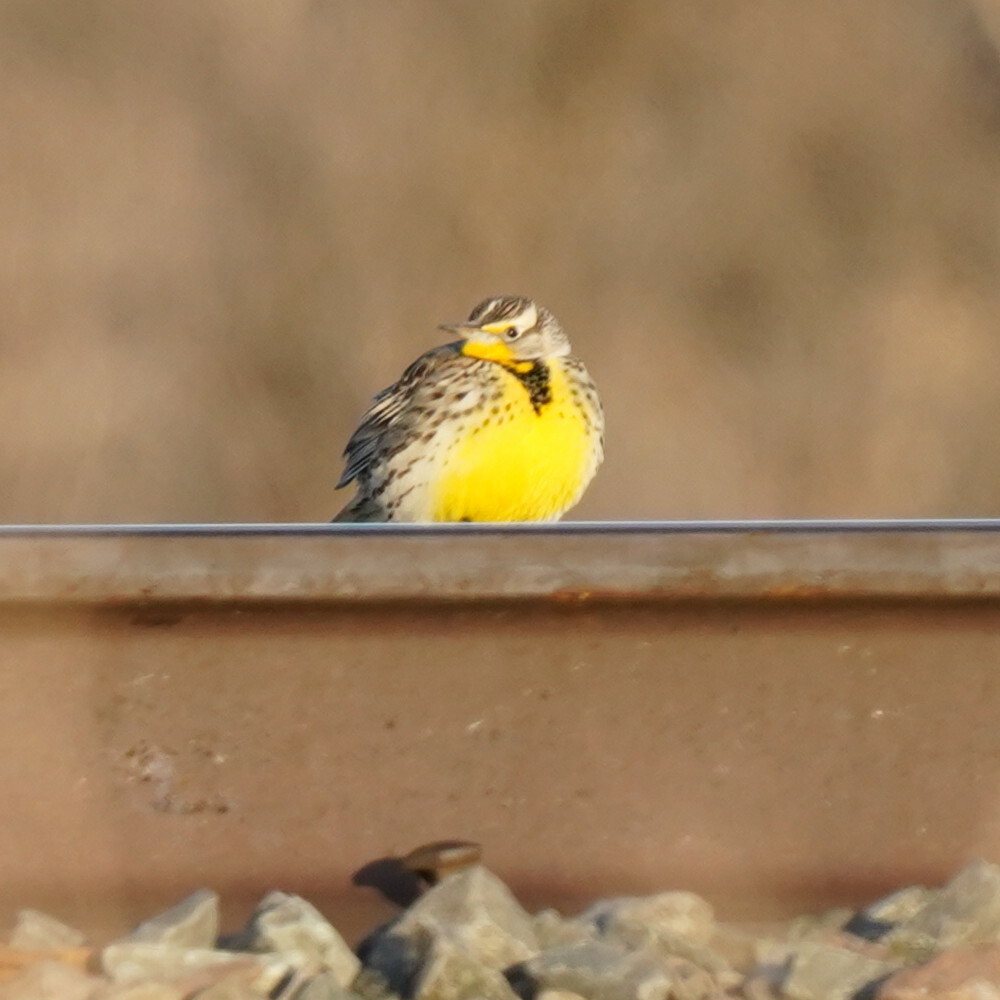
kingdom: Animalia
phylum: Chordata
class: Aves
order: Passeriformes
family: Icteridae
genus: Sturnella
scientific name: Sturnella neglecta
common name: Western meadowlark
